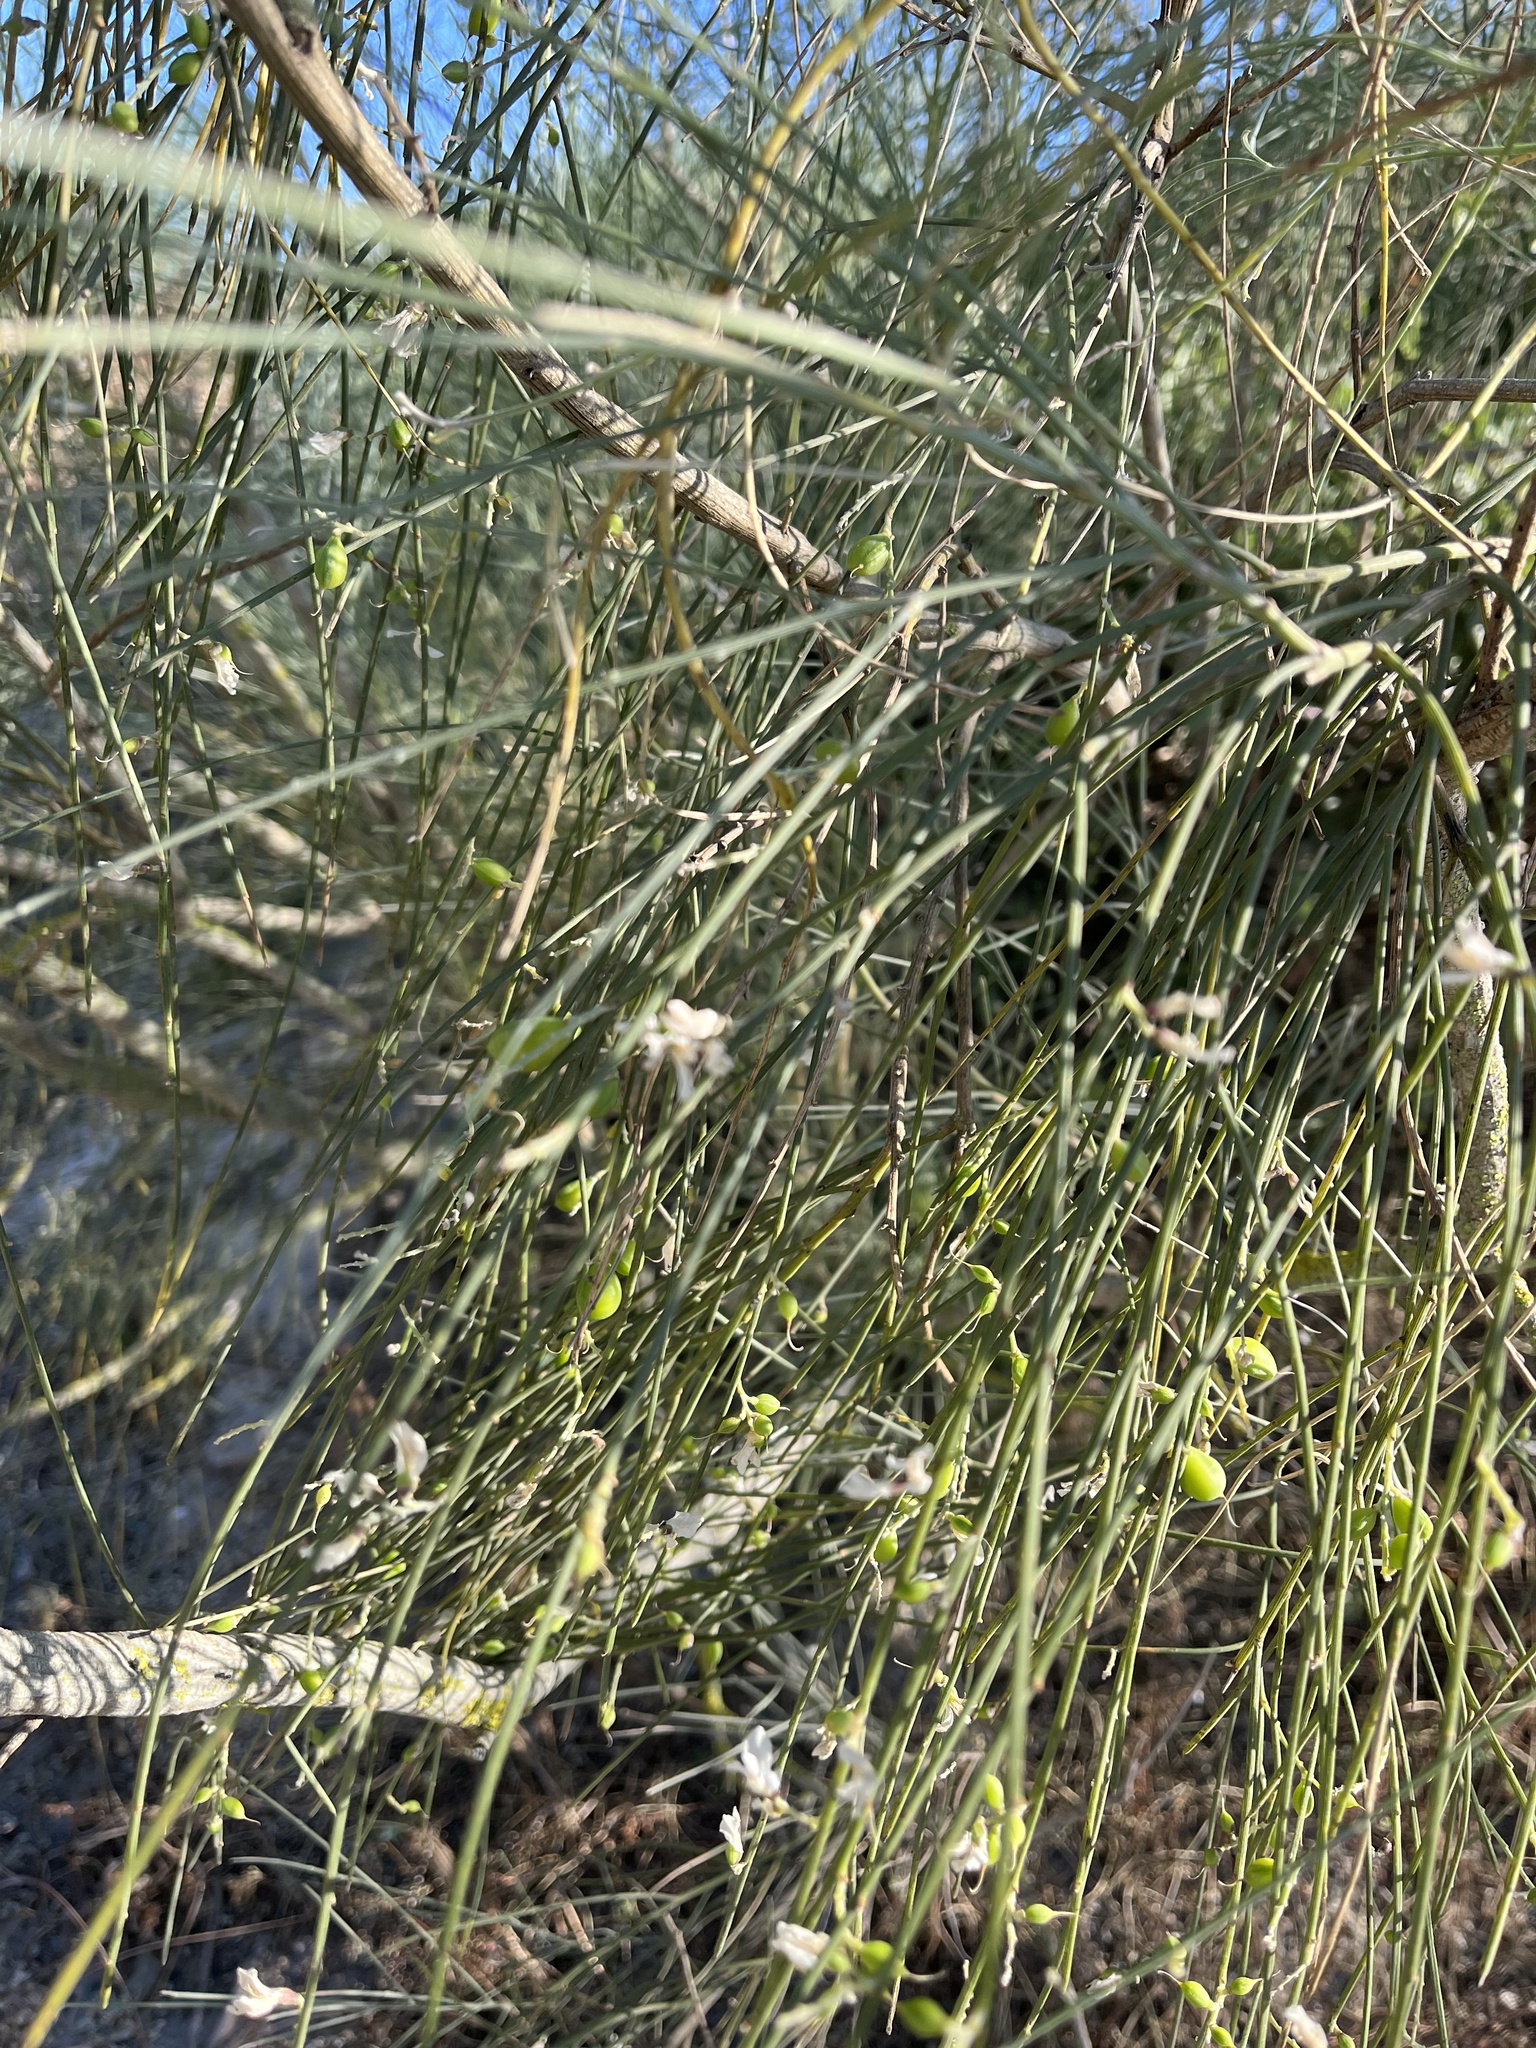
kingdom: Plantae
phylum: Tracheophyta
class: Magnoliopsida
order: Fabales
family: Fabaceae
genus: Retama
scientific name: Retama monosperma
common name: Bridal broom
